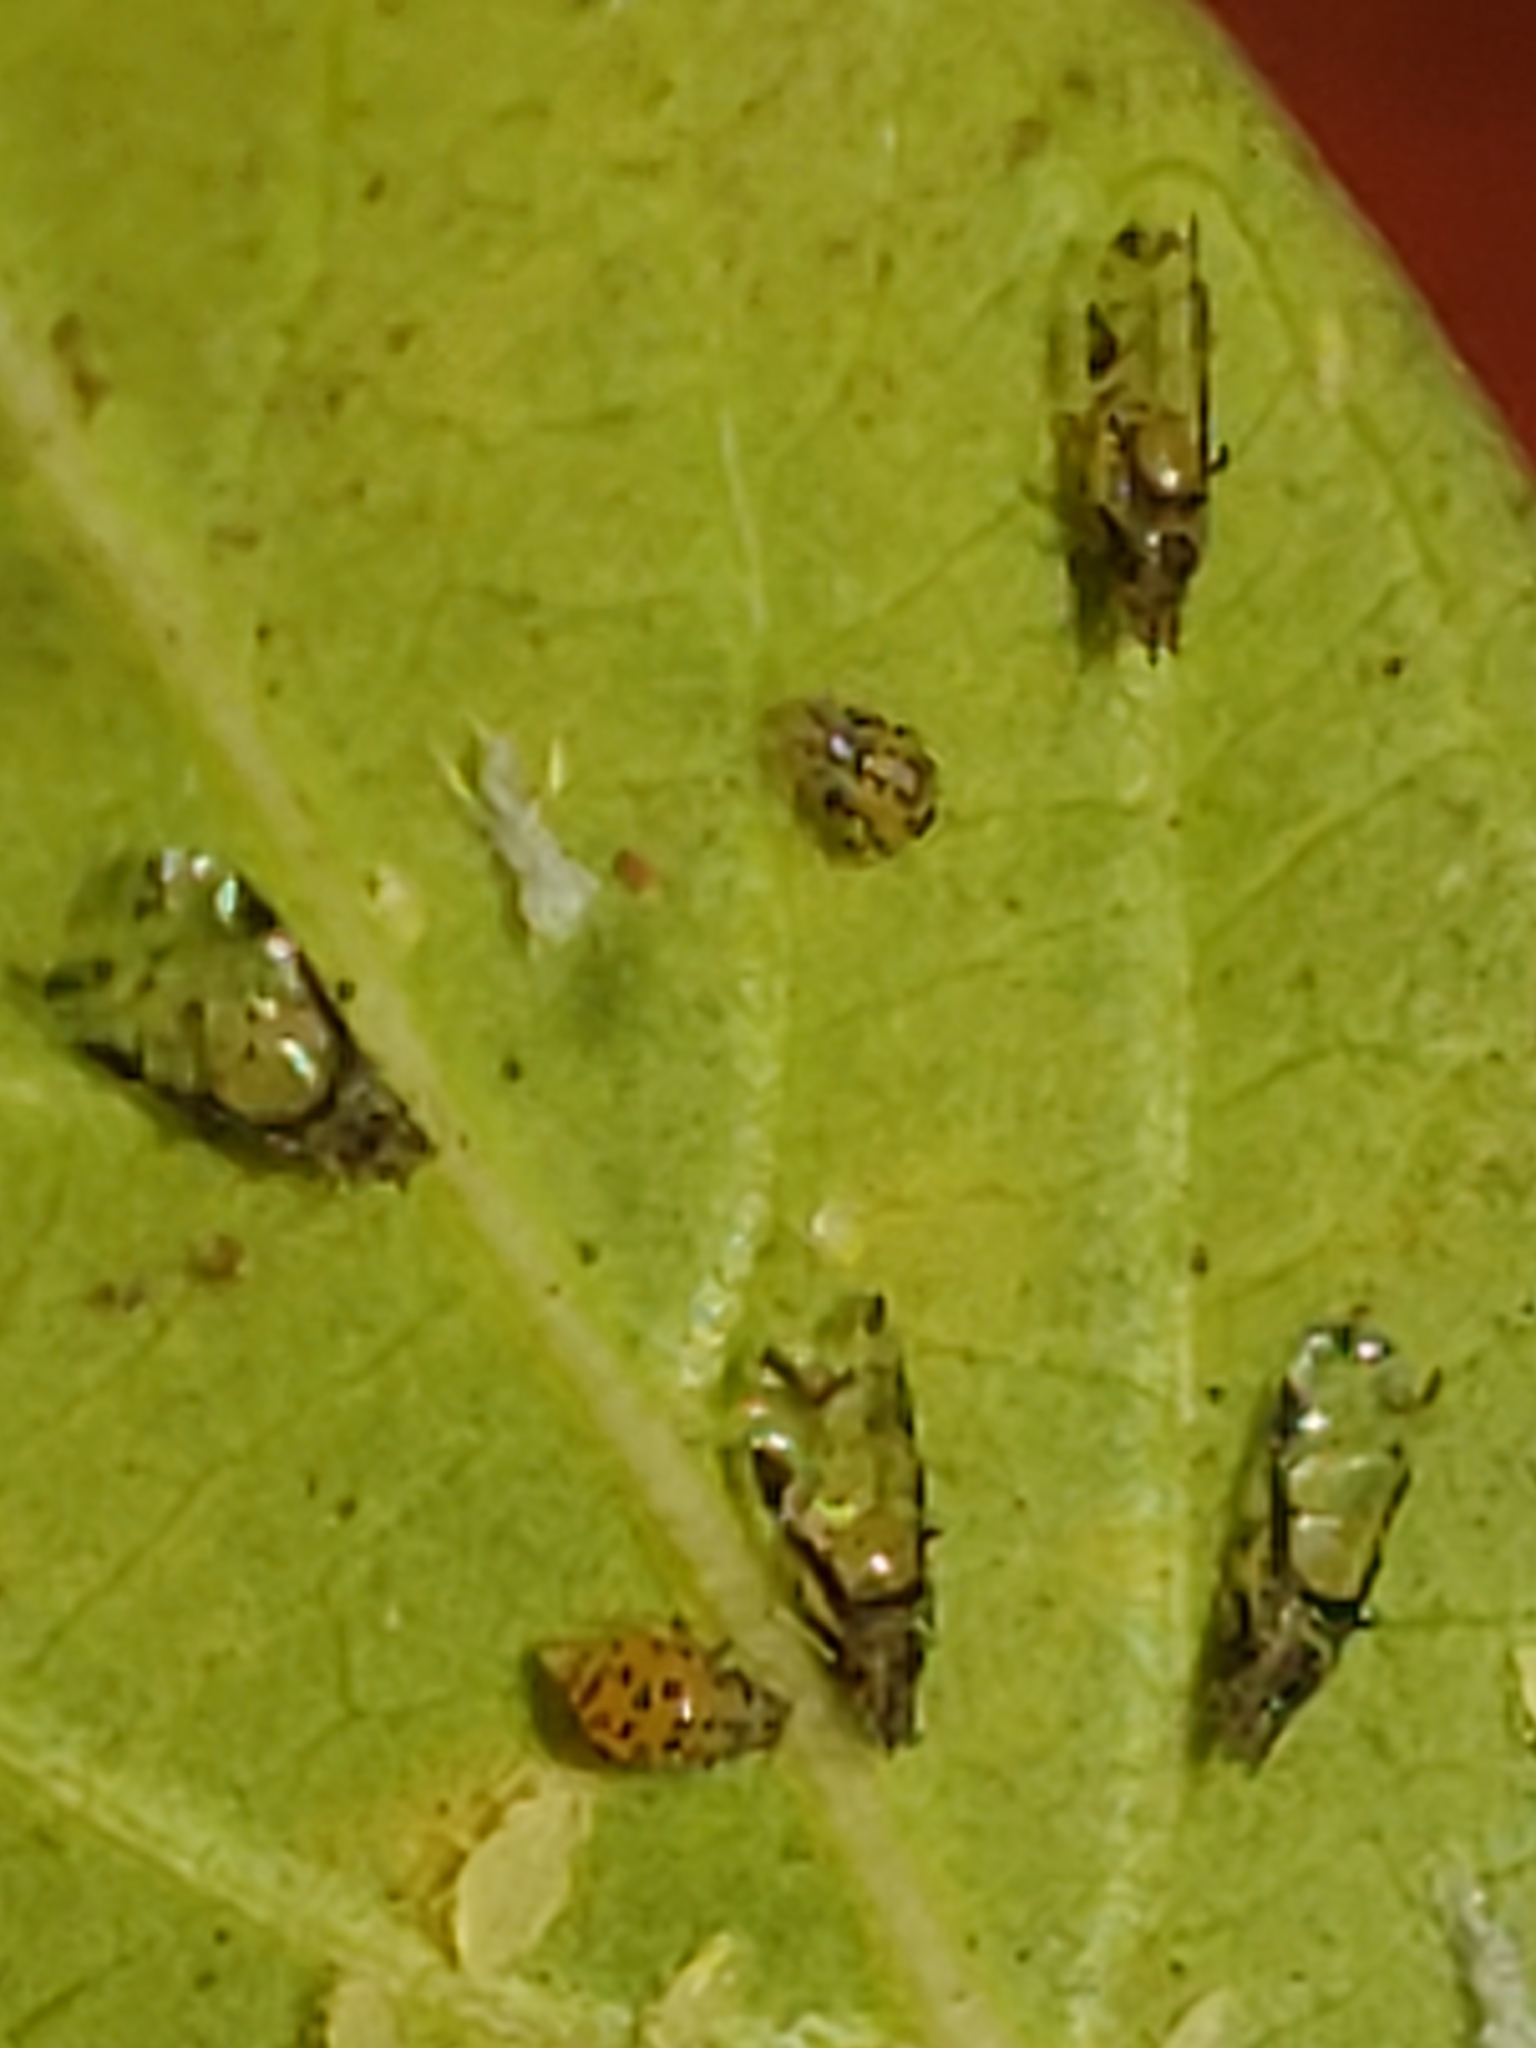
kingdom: Animalia
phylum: Arthropoda
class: Insecta
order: Hemiptera
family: Aphididae
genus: Sarucallis
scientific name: Sarucallis kahawaluokalani
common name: Crapemyrtle aphid
